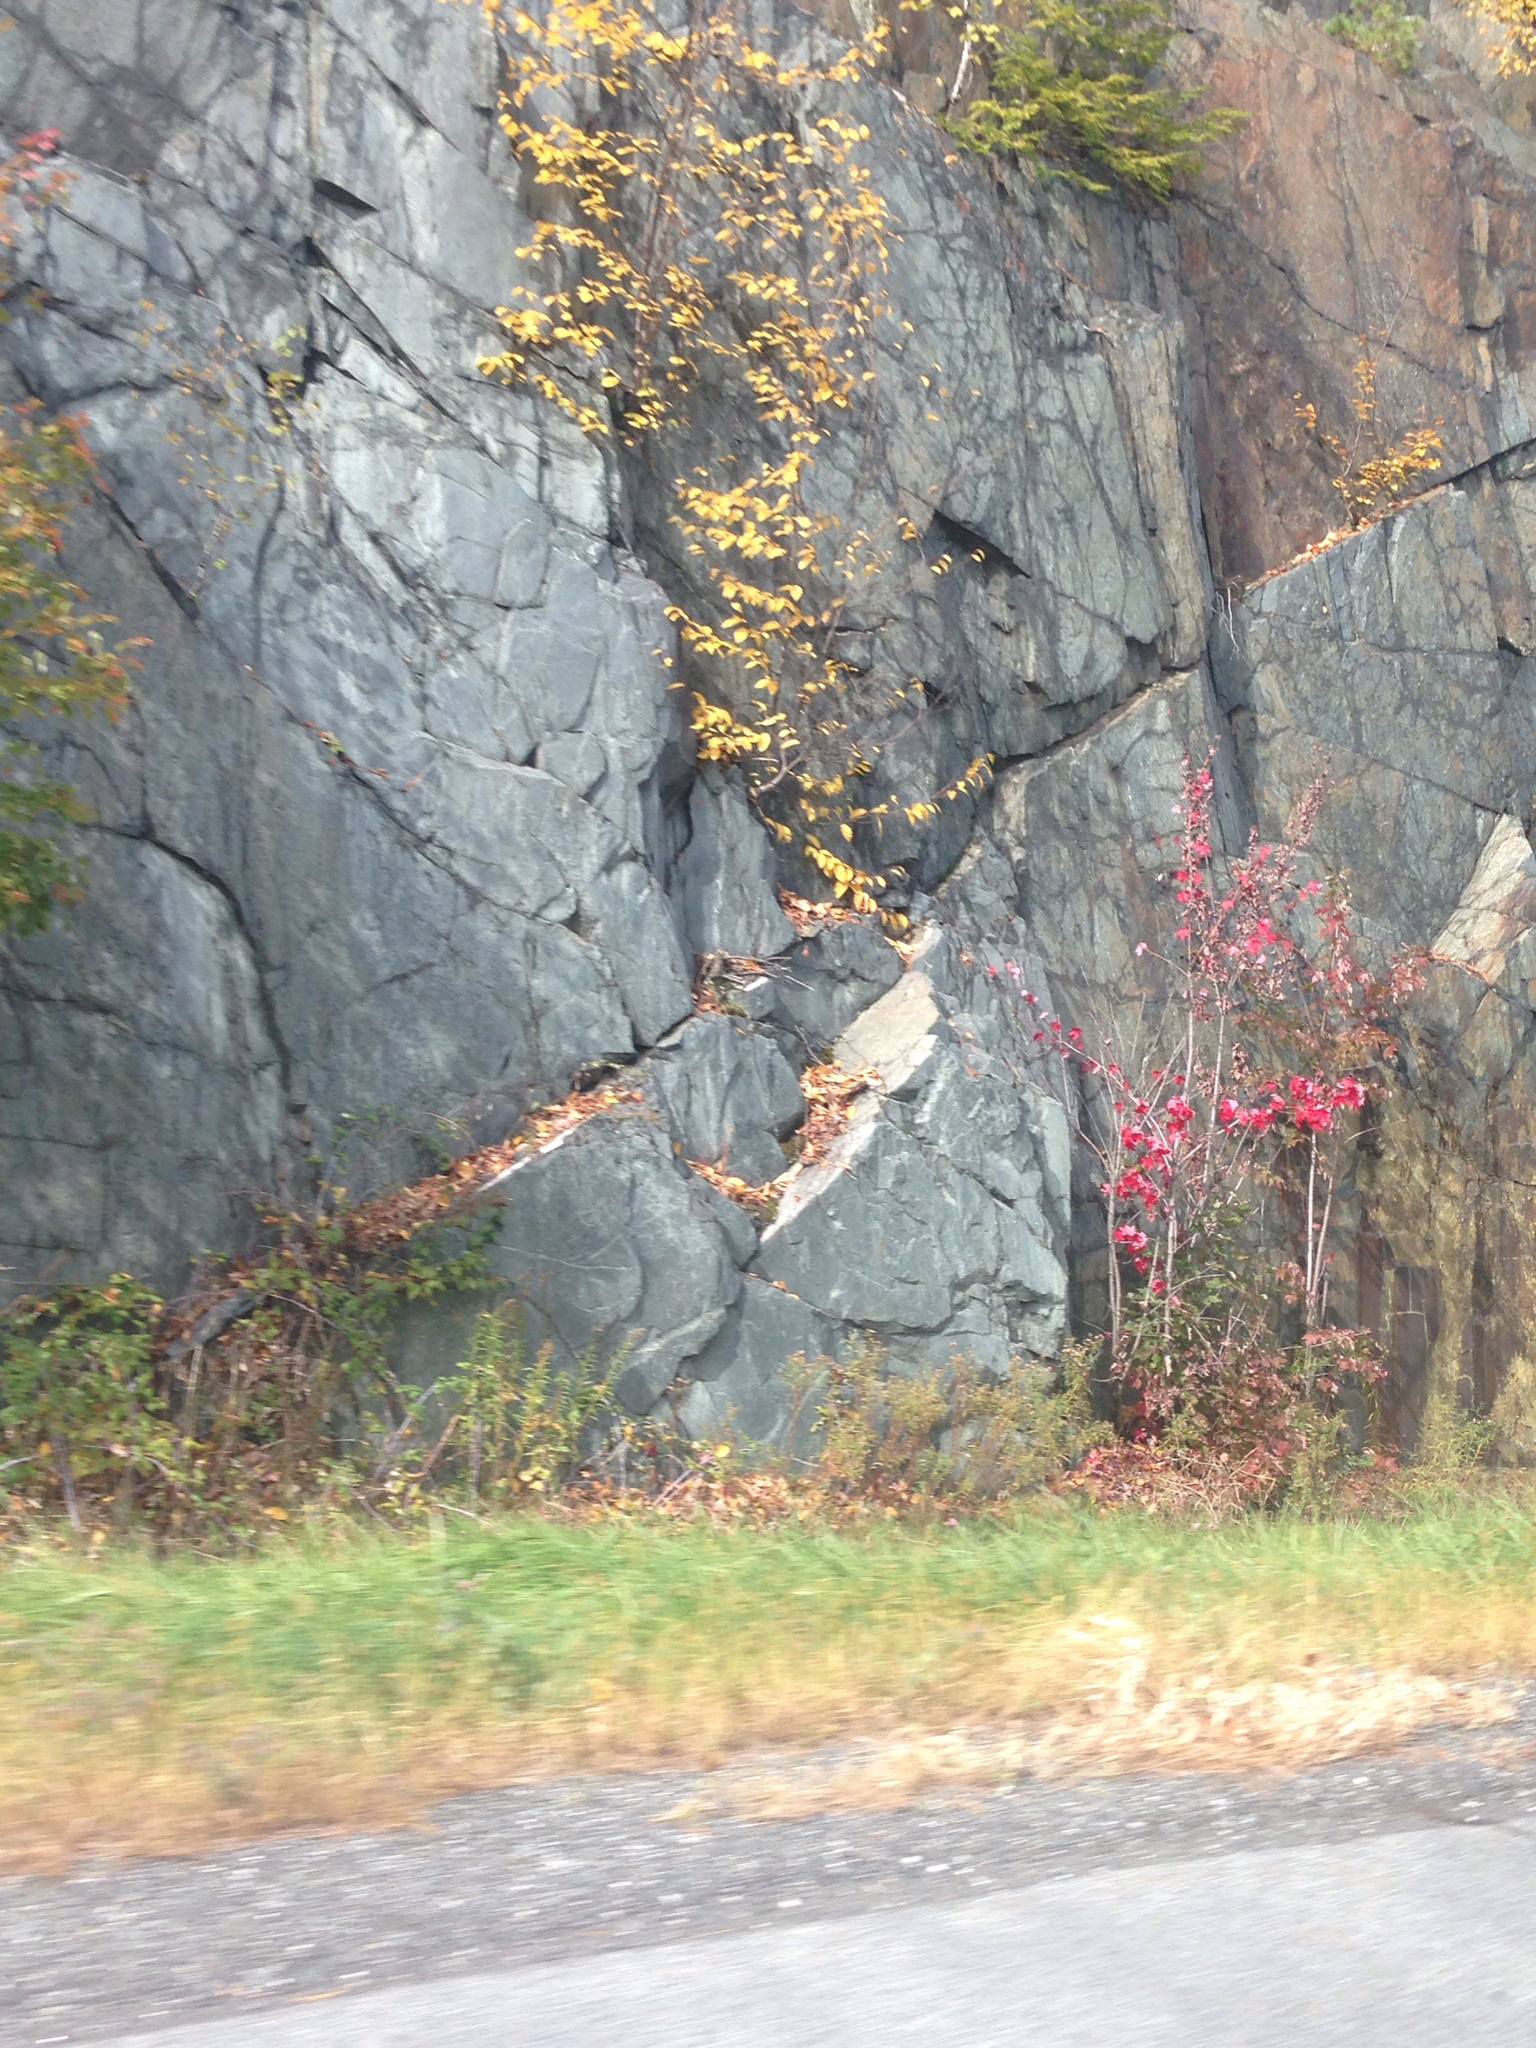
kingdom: Plantae
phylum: Tracheophyta
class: Magnoliopsida
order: Sapindales
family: Sapindaceae
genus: Acer
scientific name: Acer rubrum
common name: Red maple
